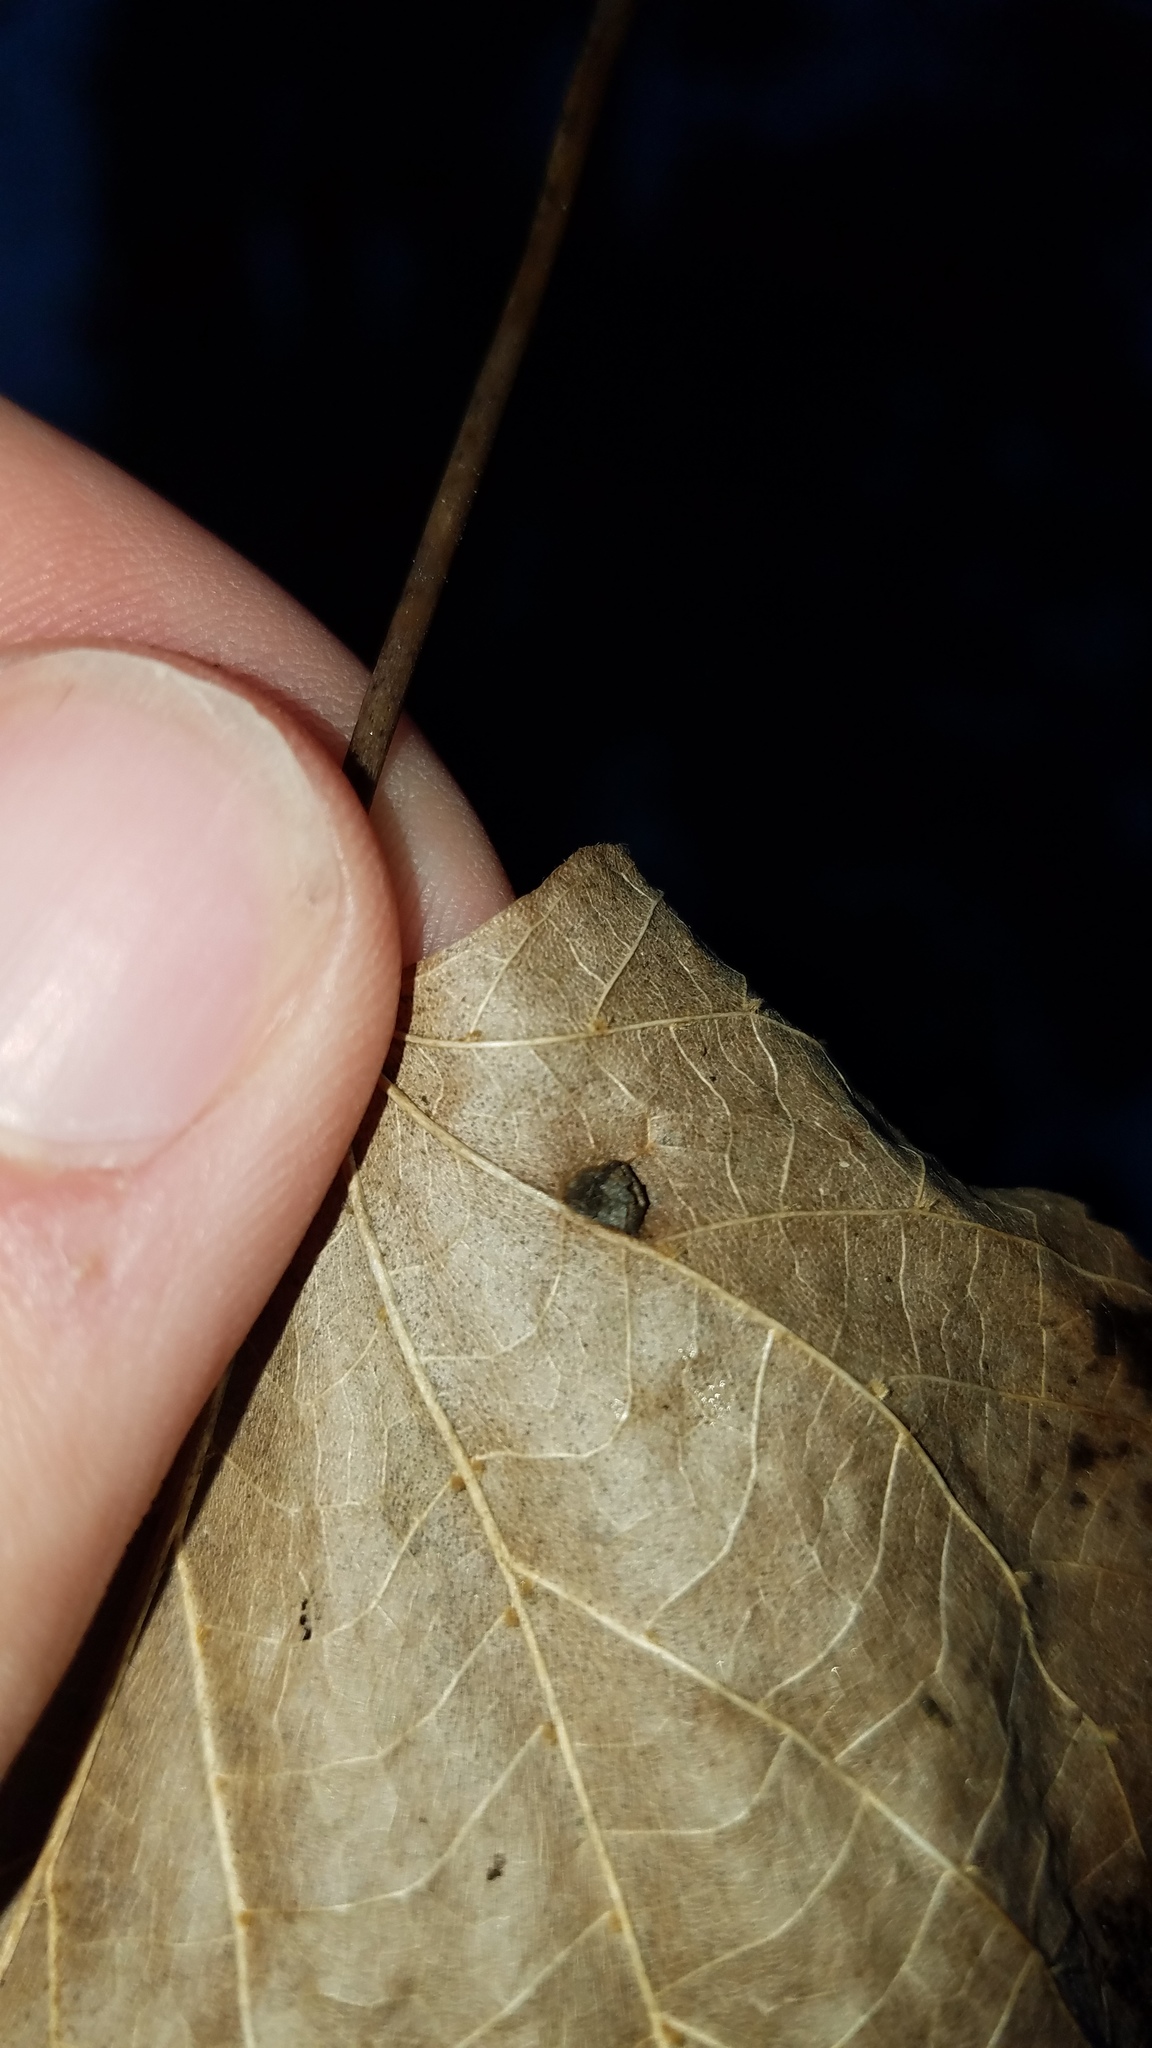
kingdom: Animalia
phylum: Arthropoda
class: Insecta
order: Diptera
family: Cecidomyiidae
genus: Contarinia
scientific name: Contarinia verrucicola
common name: Linden wart gall midge
